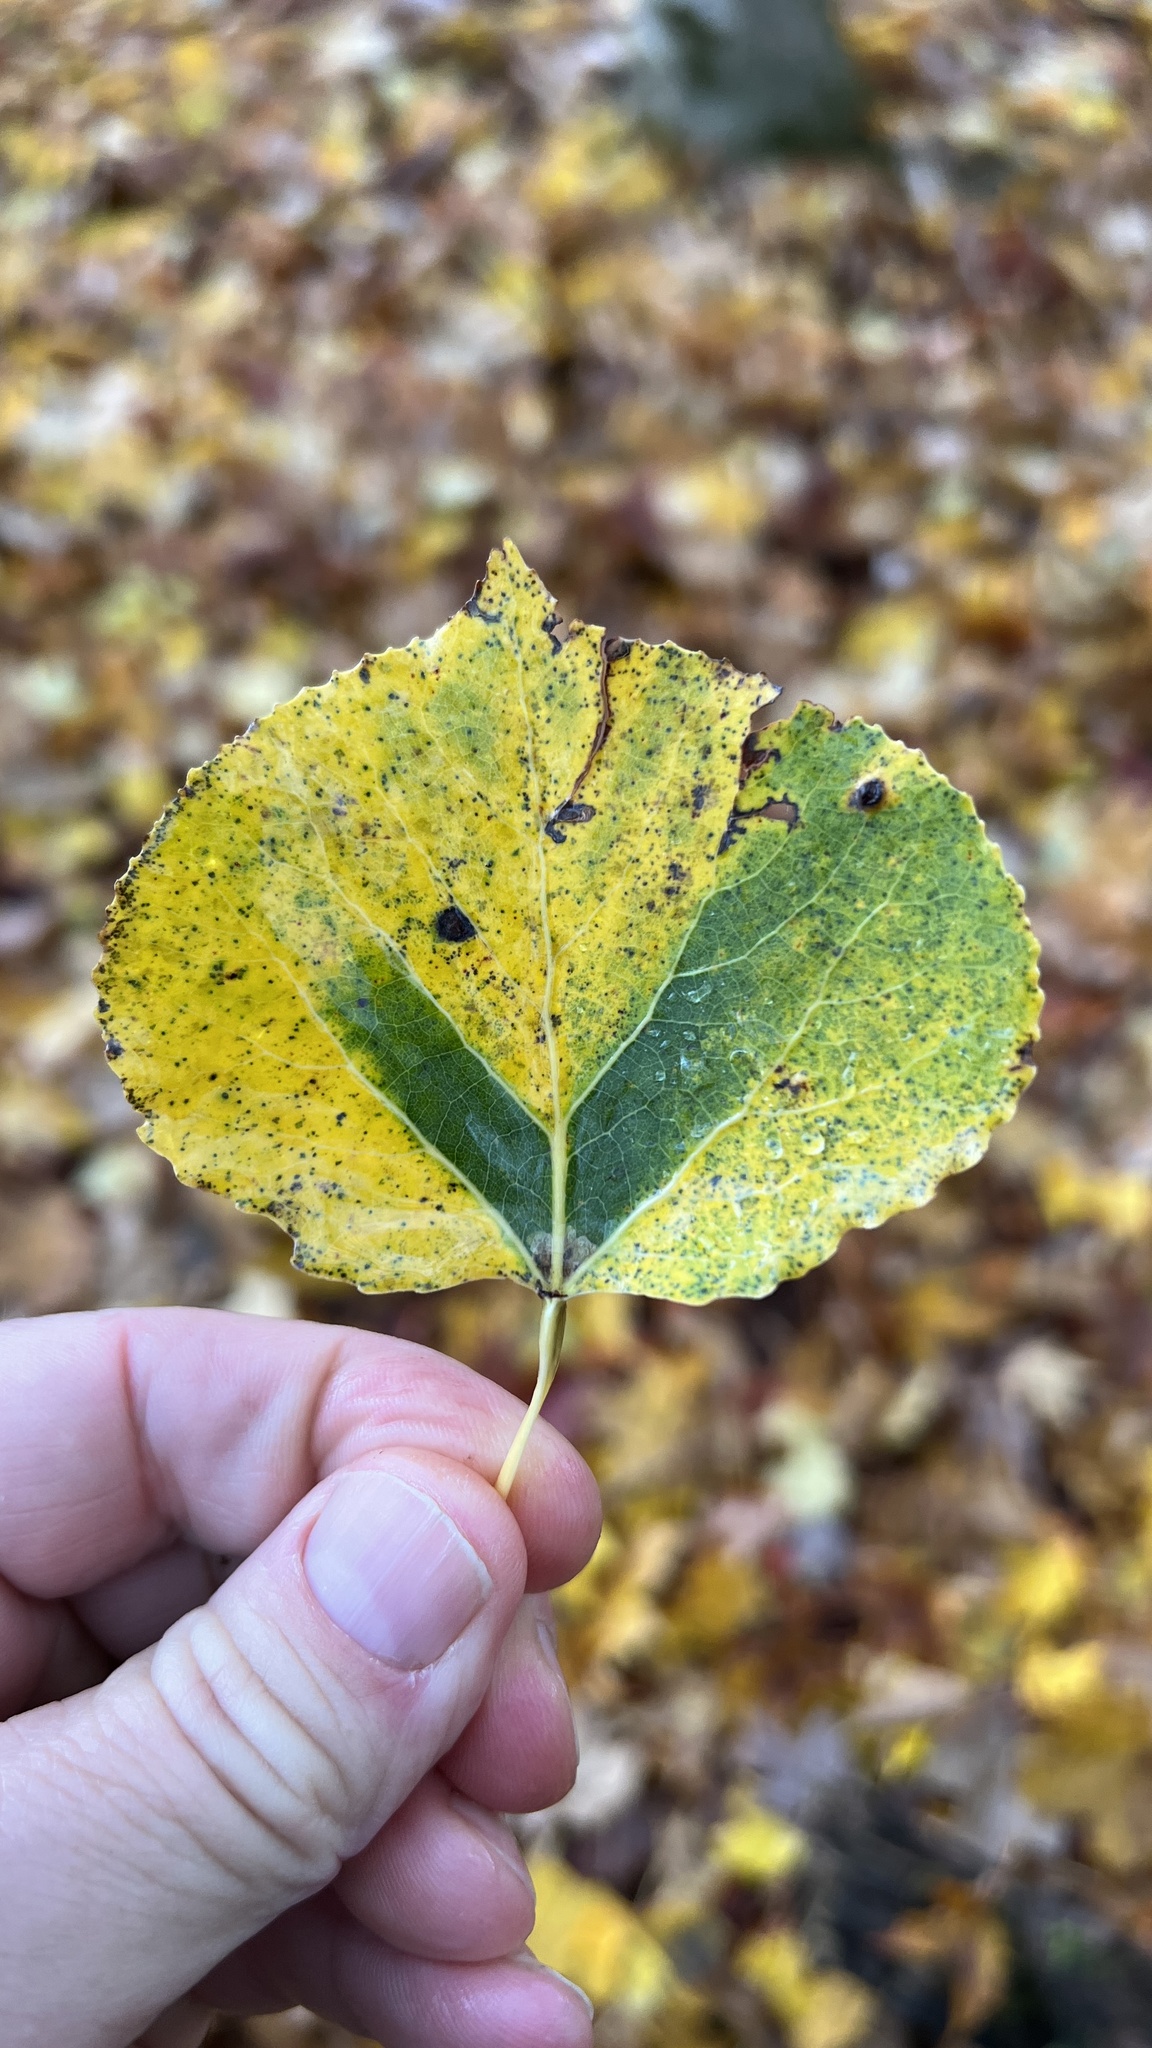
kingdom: Plantae
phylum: Tracheophyta
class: Magnoliopsida
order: Malpighiales
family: Salicaceae
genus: Populus
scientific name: Populus tremuloides
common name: Quaking aspen
